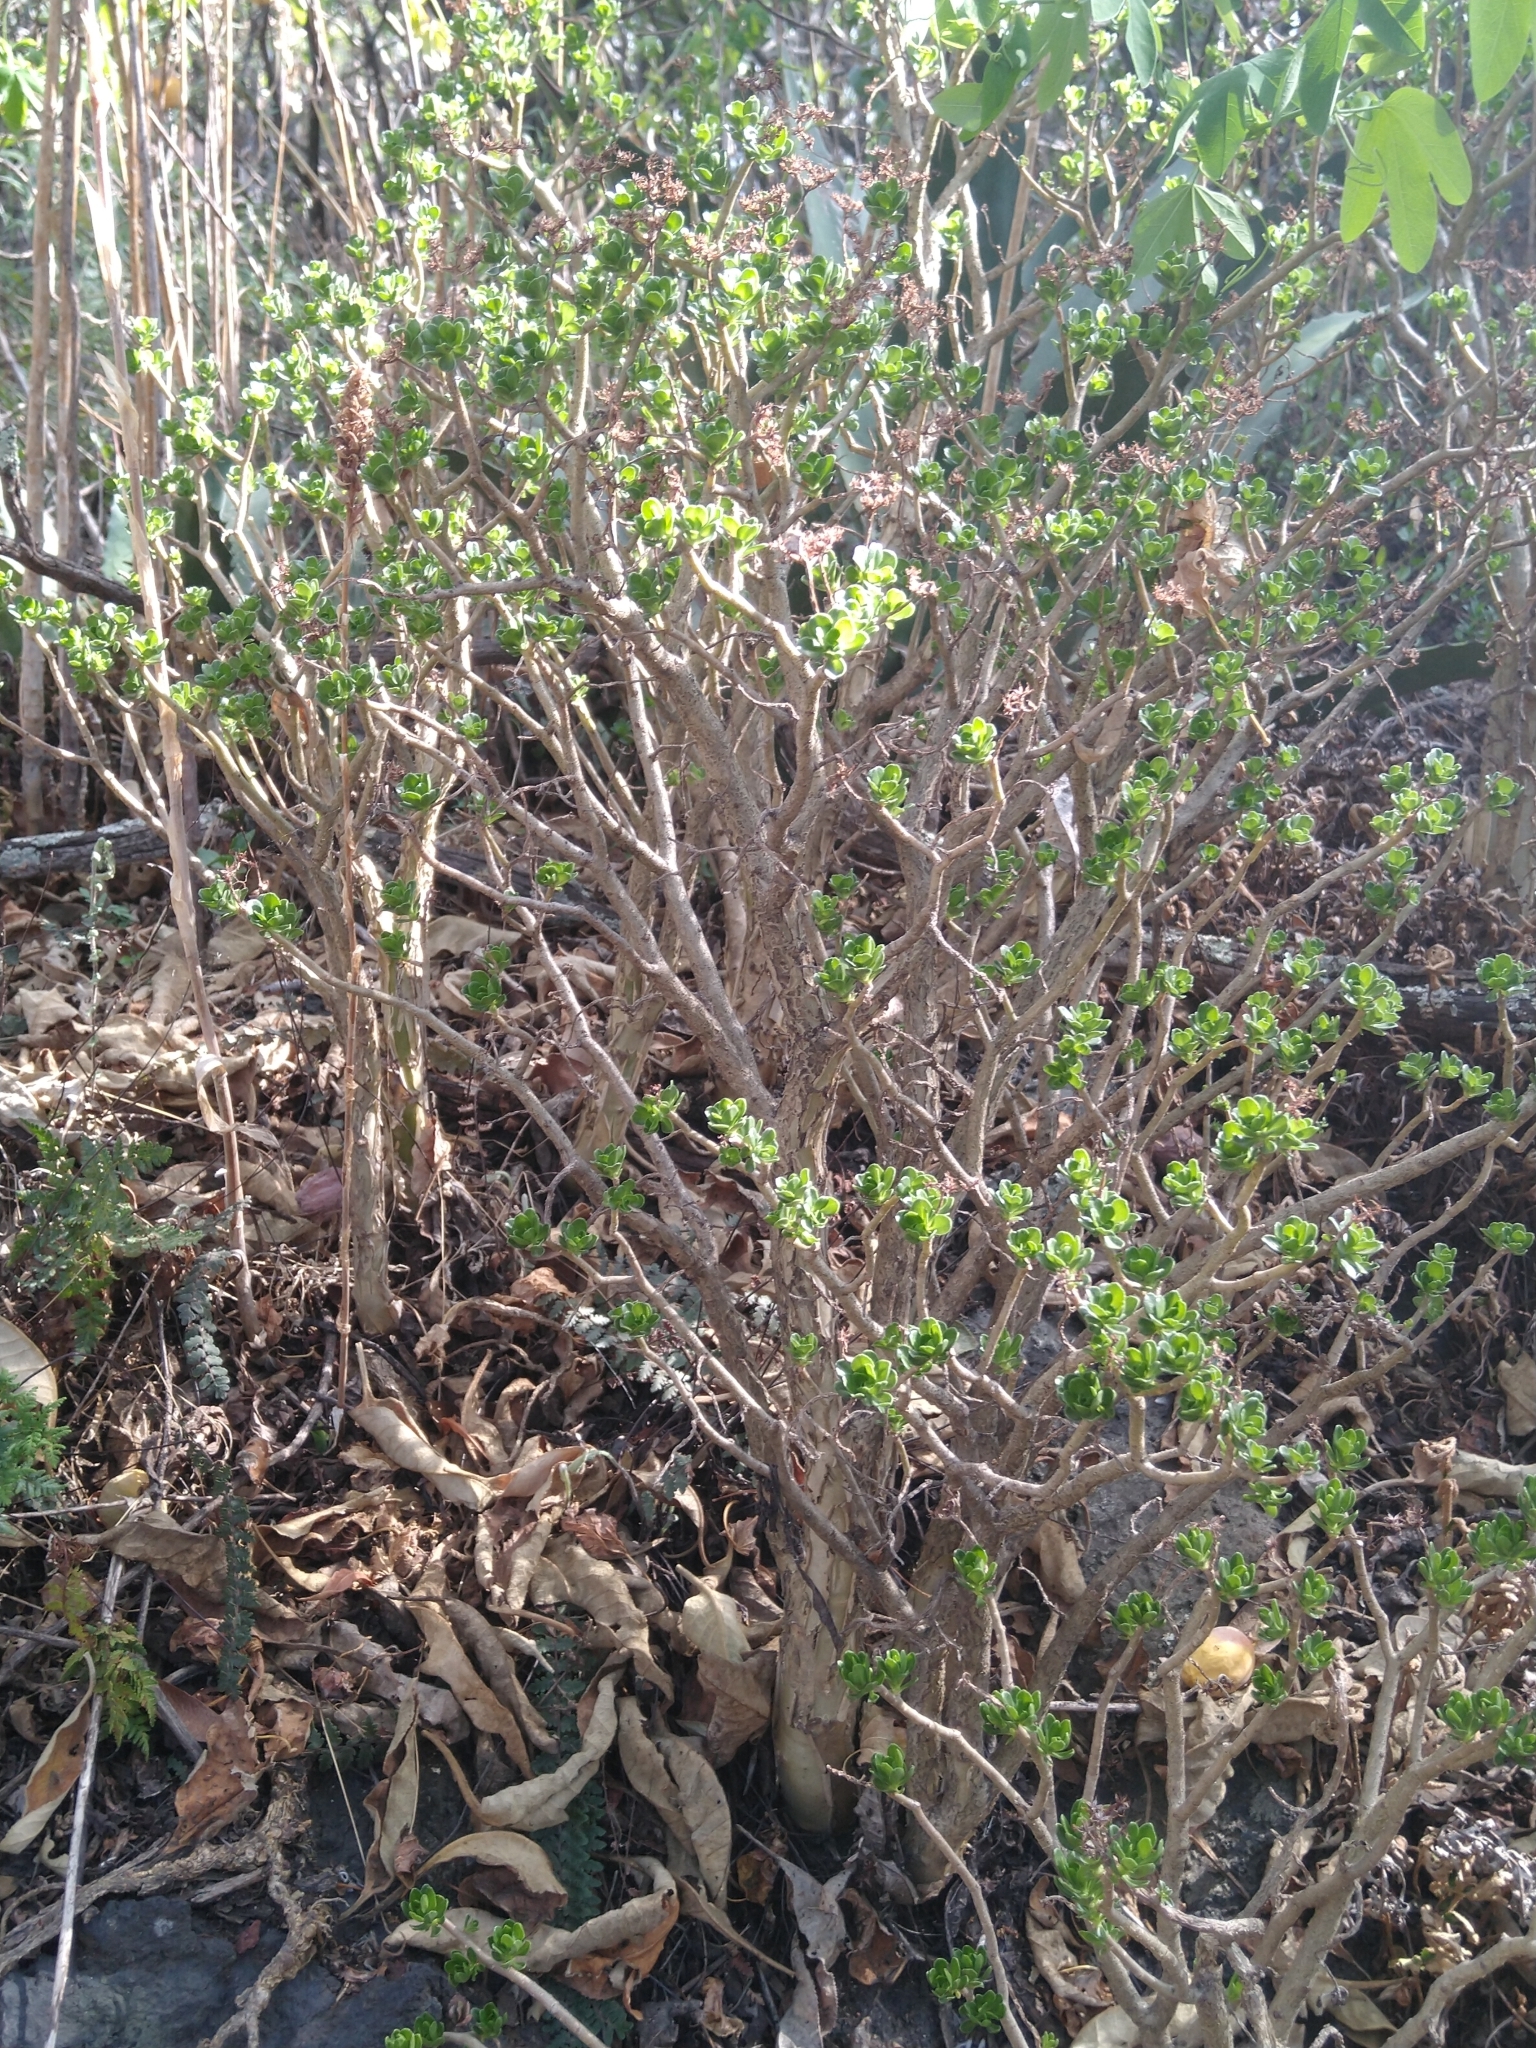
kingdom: Plantae
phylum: Tracheophyta
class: Magnoliopsida
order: Saxifragales
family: Crassulaceae
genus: Sedum
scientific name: Sedum oxypetalum
